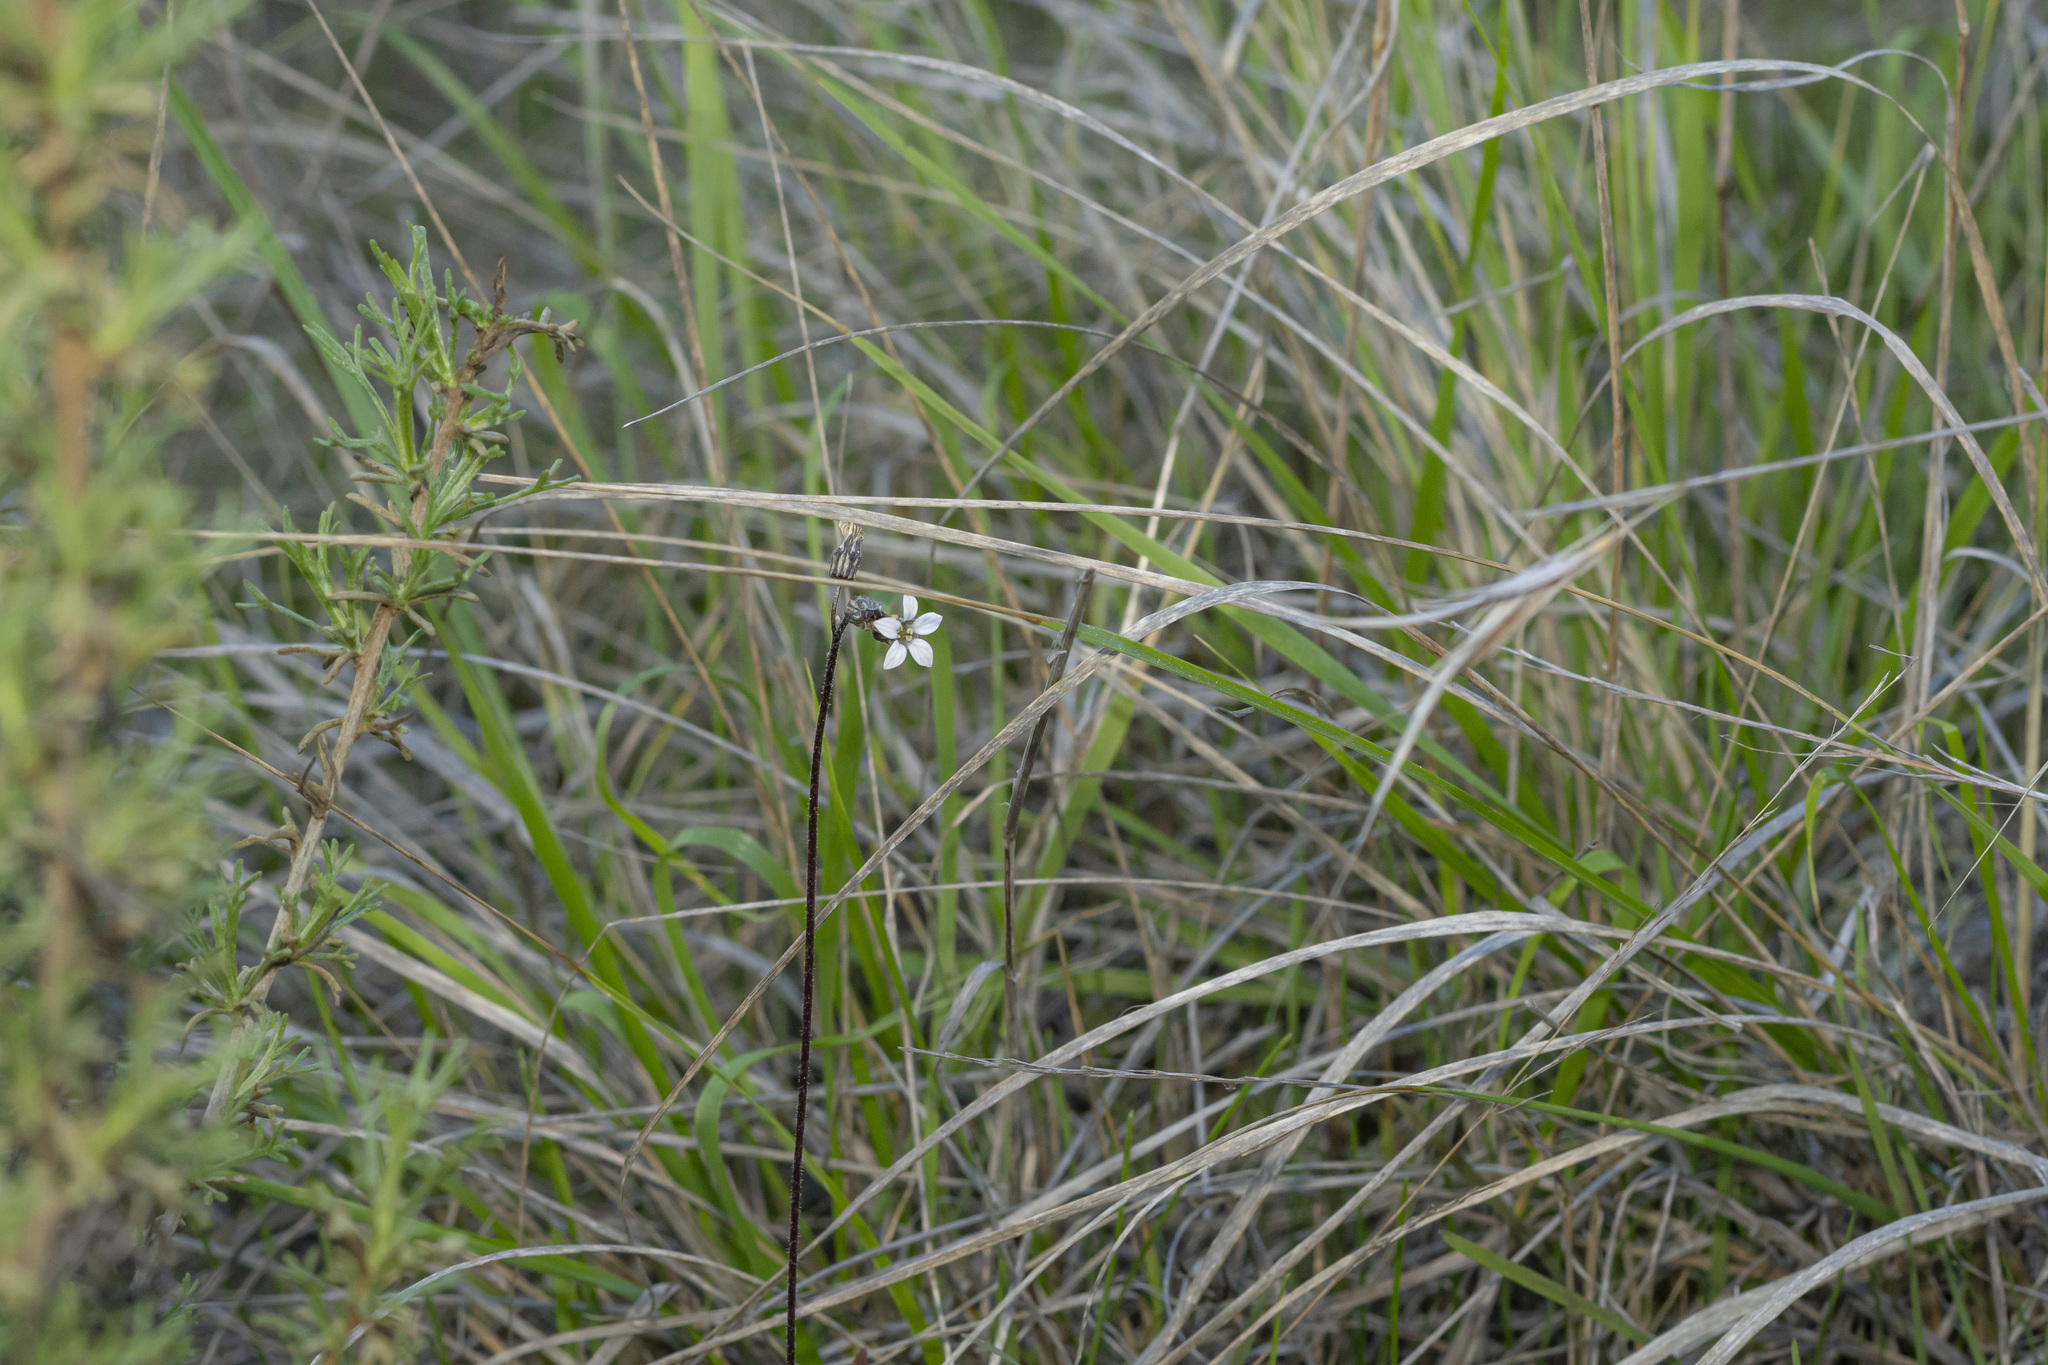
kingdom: Plantae
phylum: Tracheophyta
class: Magnoliopsida
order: Saxifragales
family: Saxifragaceae
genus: Jepsonia
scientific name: Jepsonia parryi
